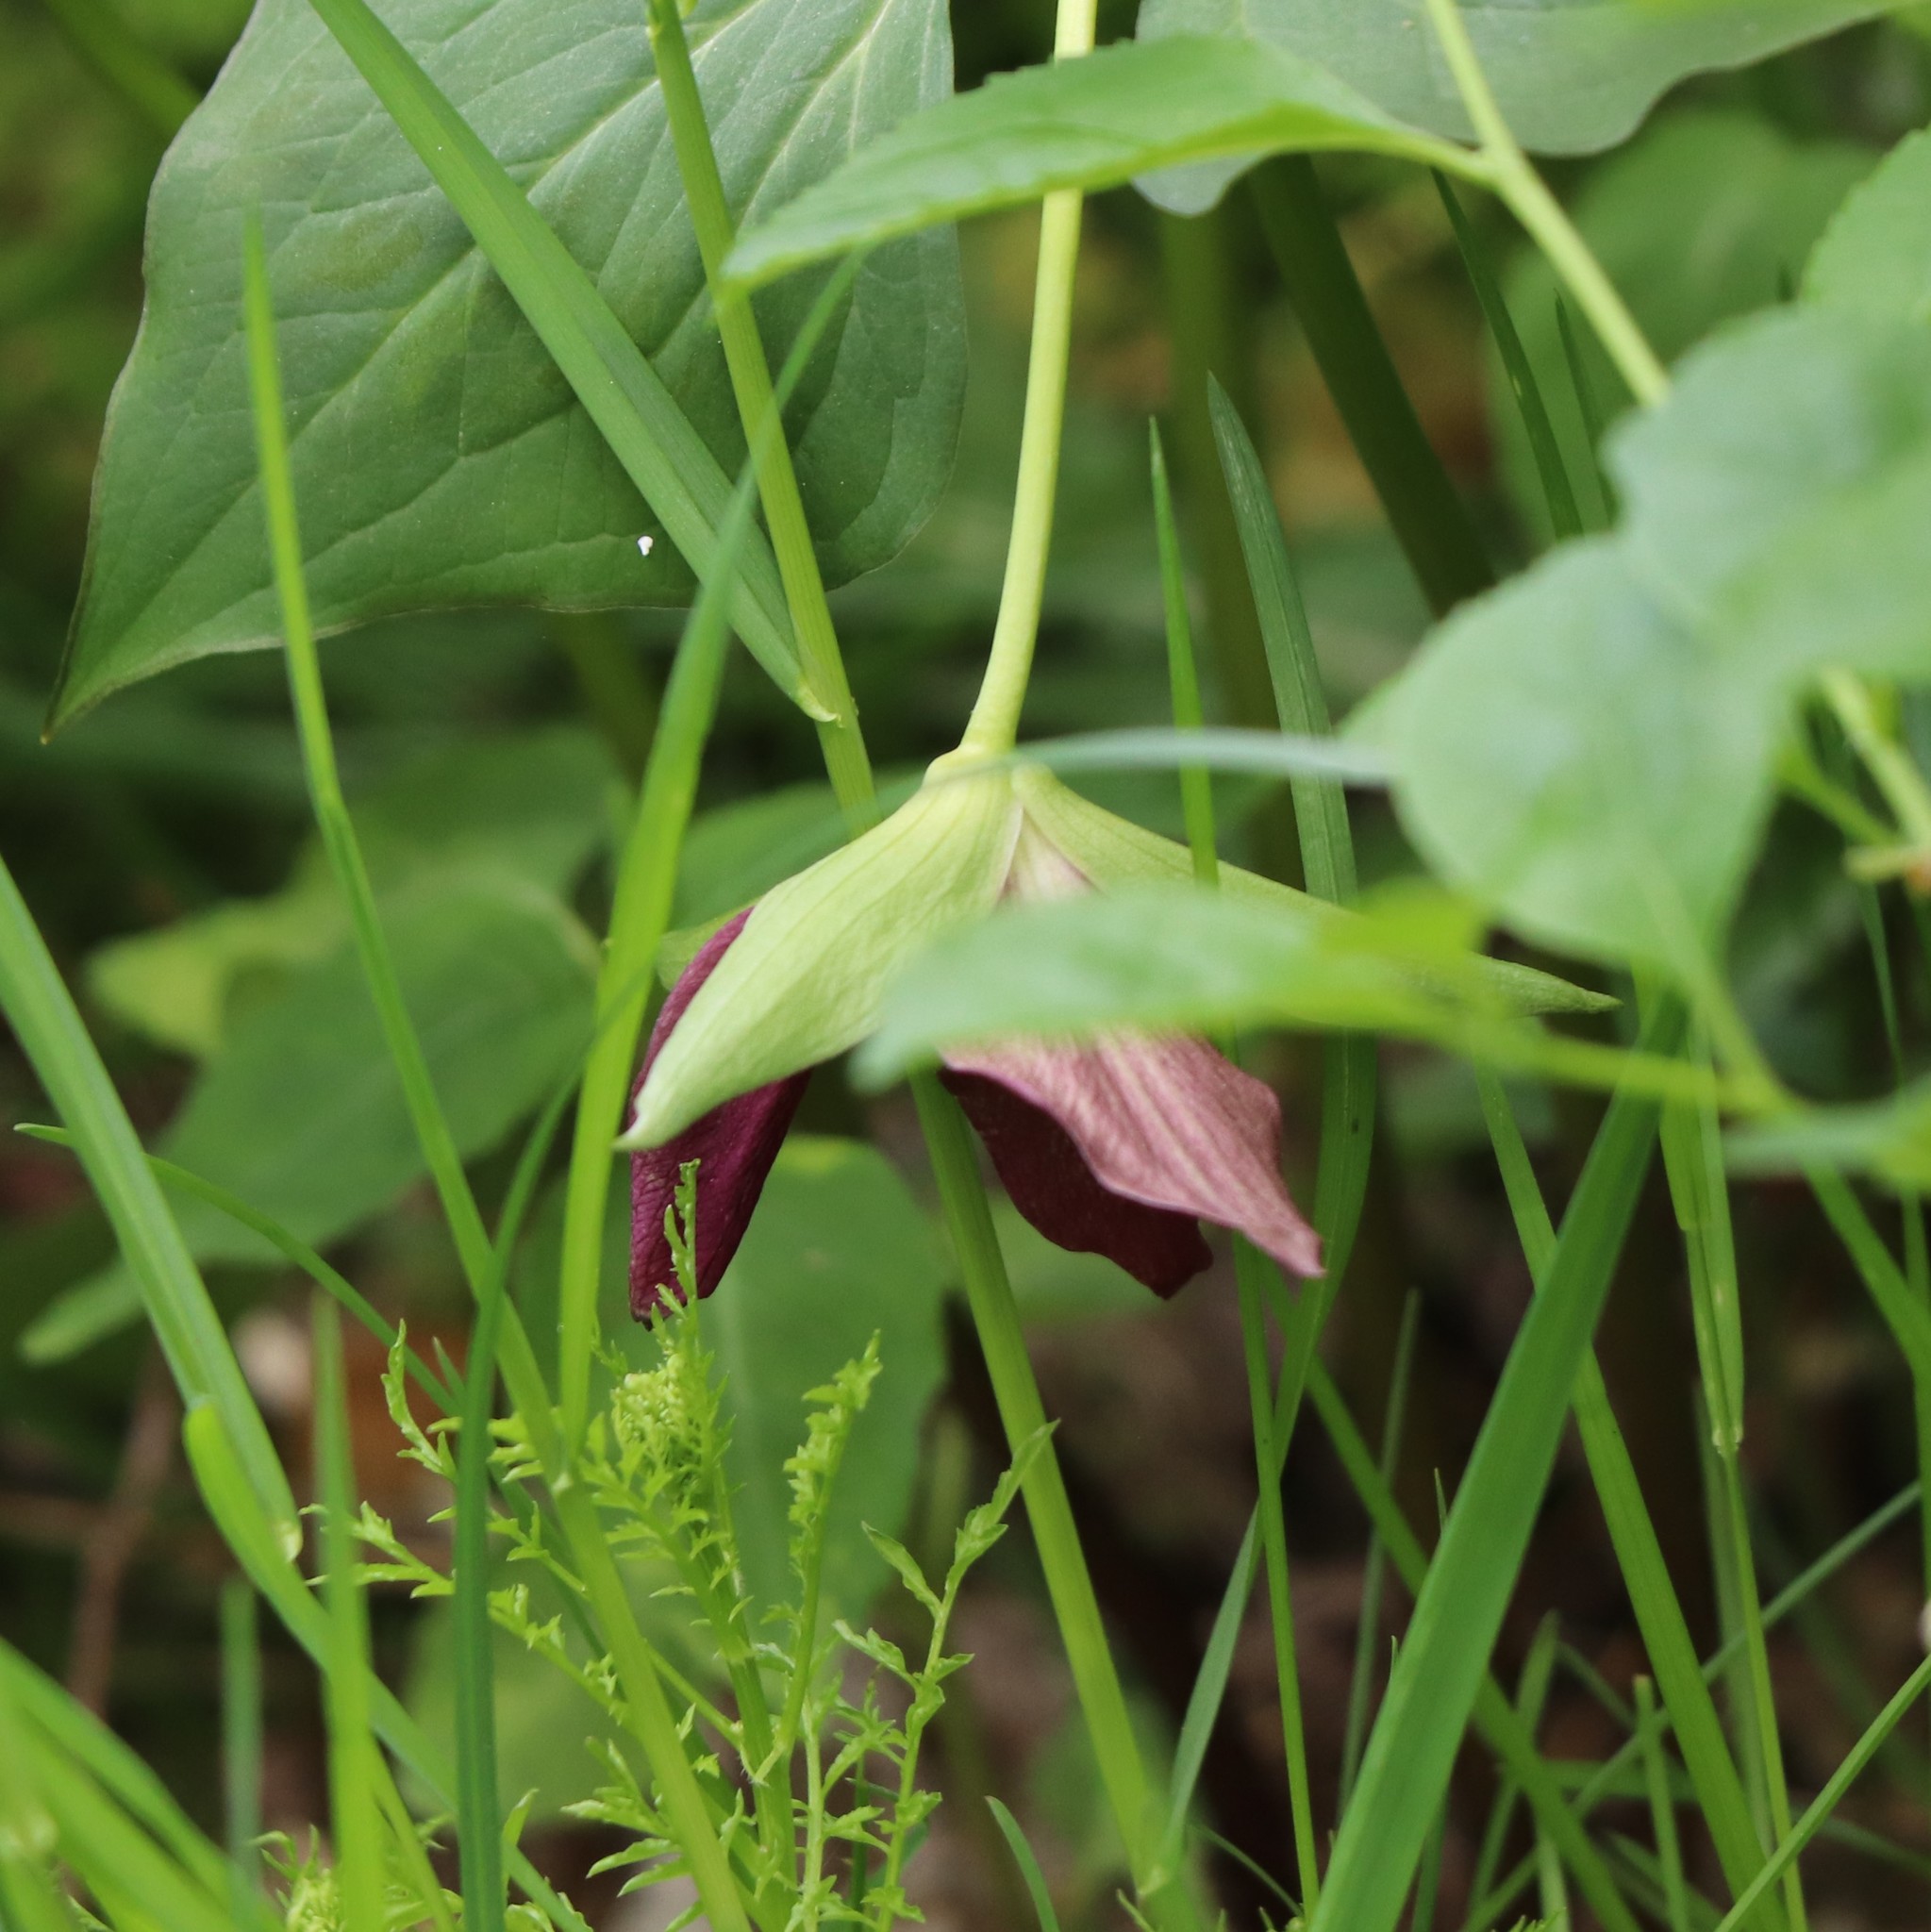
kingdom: Plantae
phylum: Tracheophyta
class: Liliopsida
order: Liliales
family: Melanthiaceae
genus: Trillium
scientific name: Trillium erectum
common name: Purple trillium
